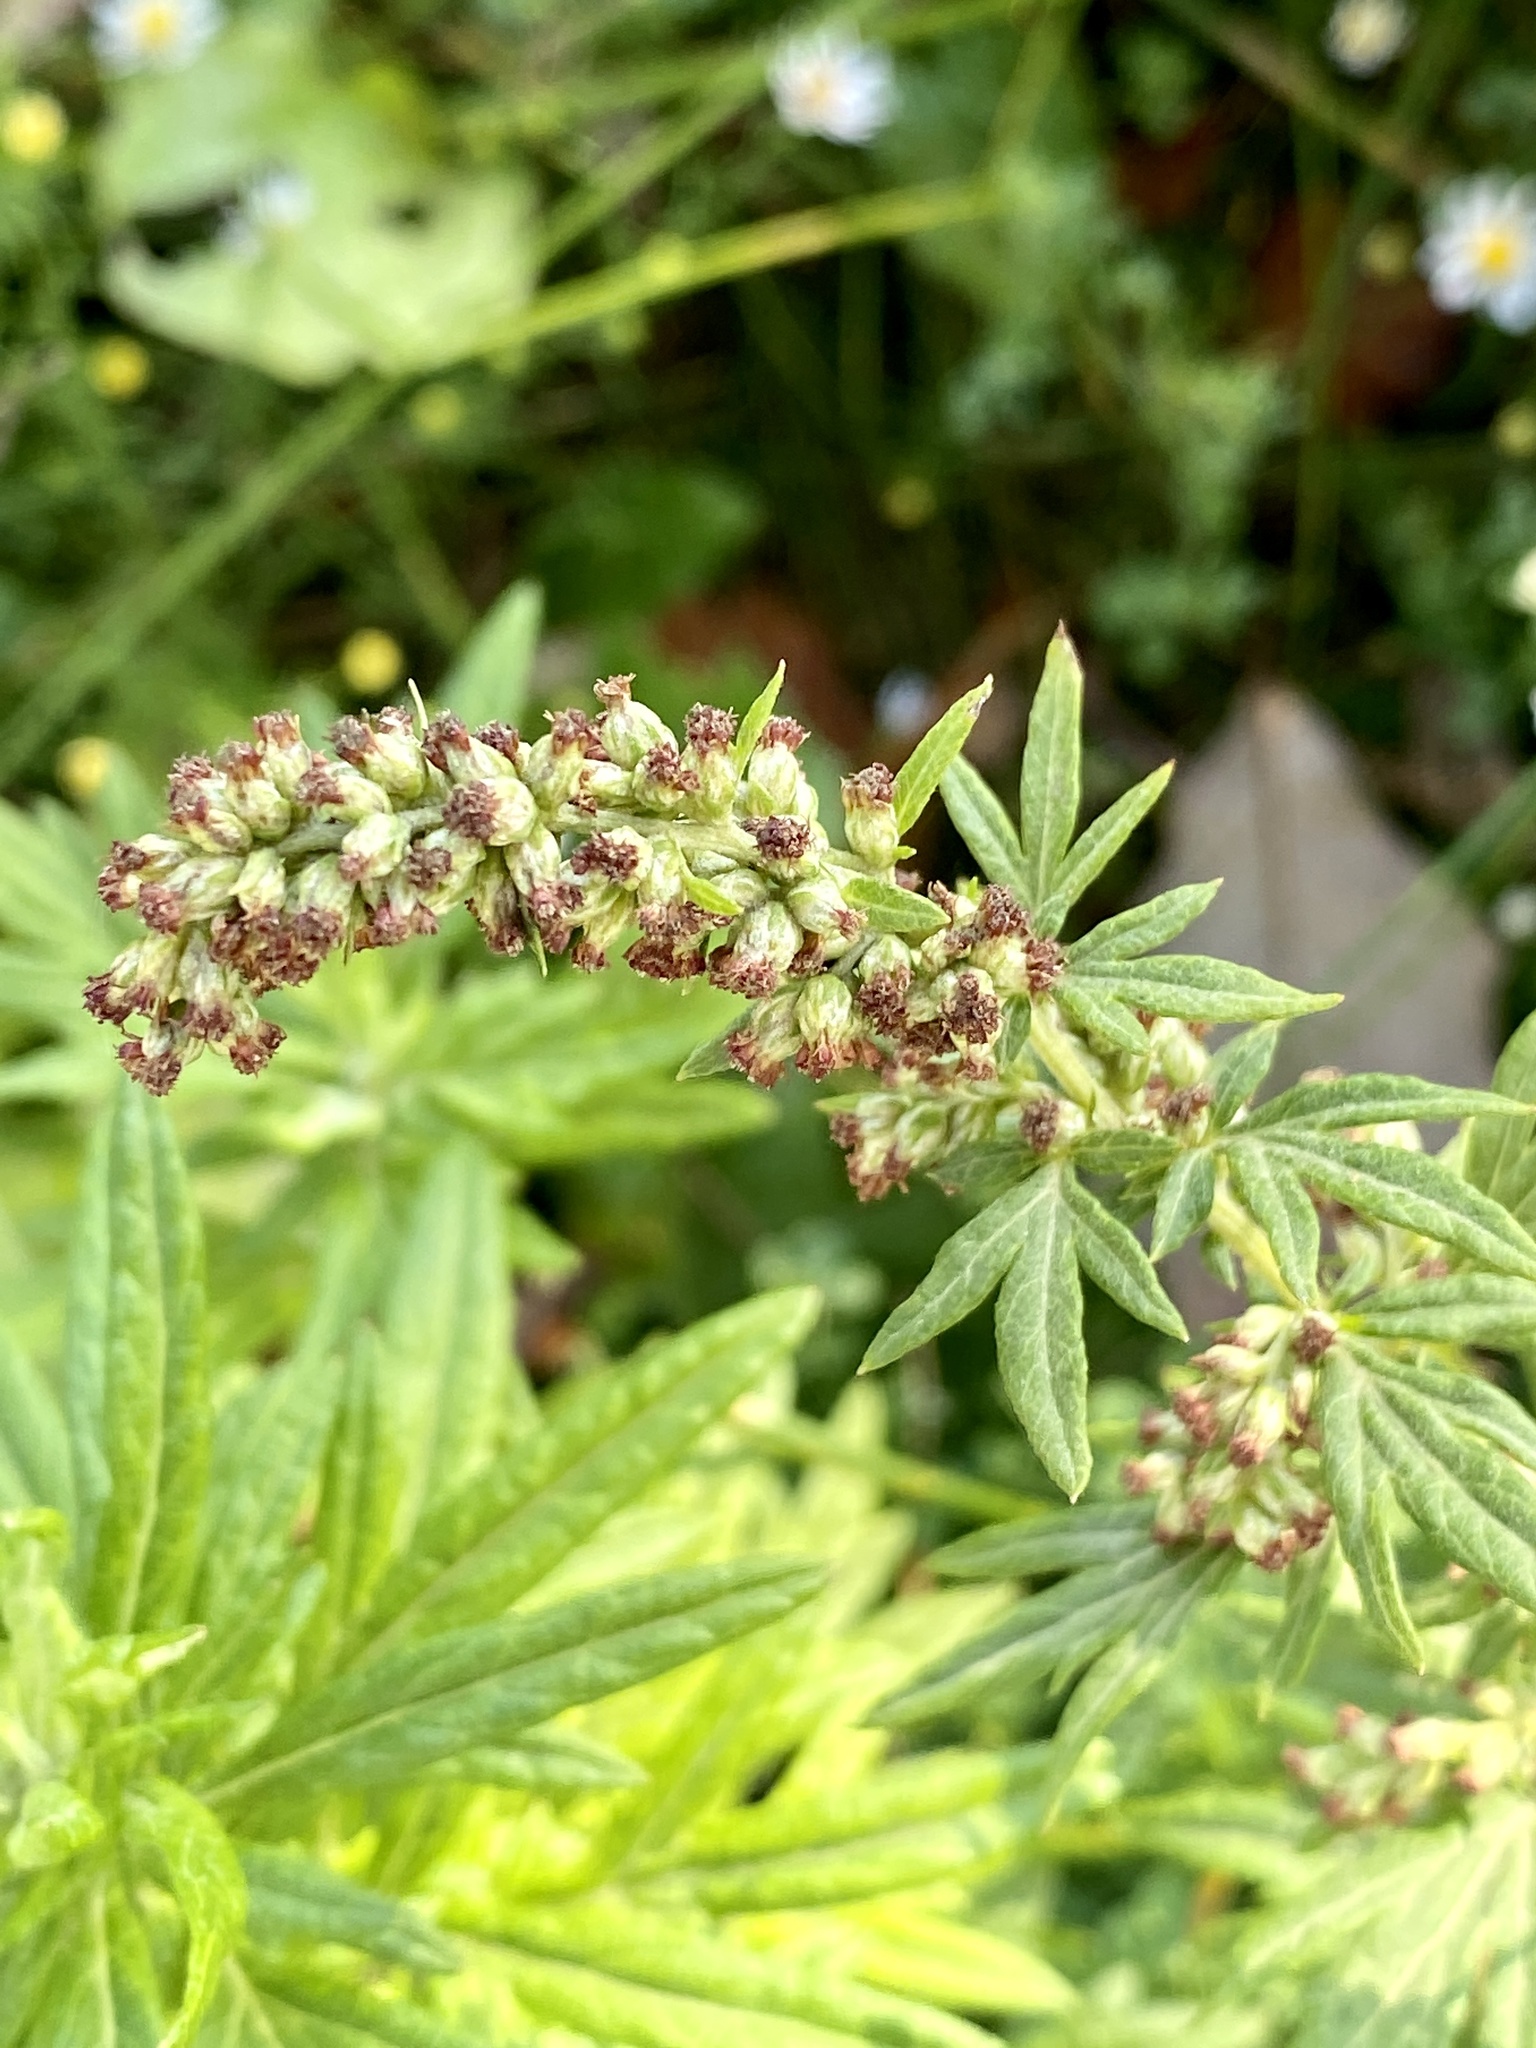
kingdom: Plantae
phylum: Tracheophyta
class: Magnoliopsida
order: Asterales
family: Asteraceae
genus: Artemisia
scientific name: Artemisia vulgaris
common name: Mugwort
